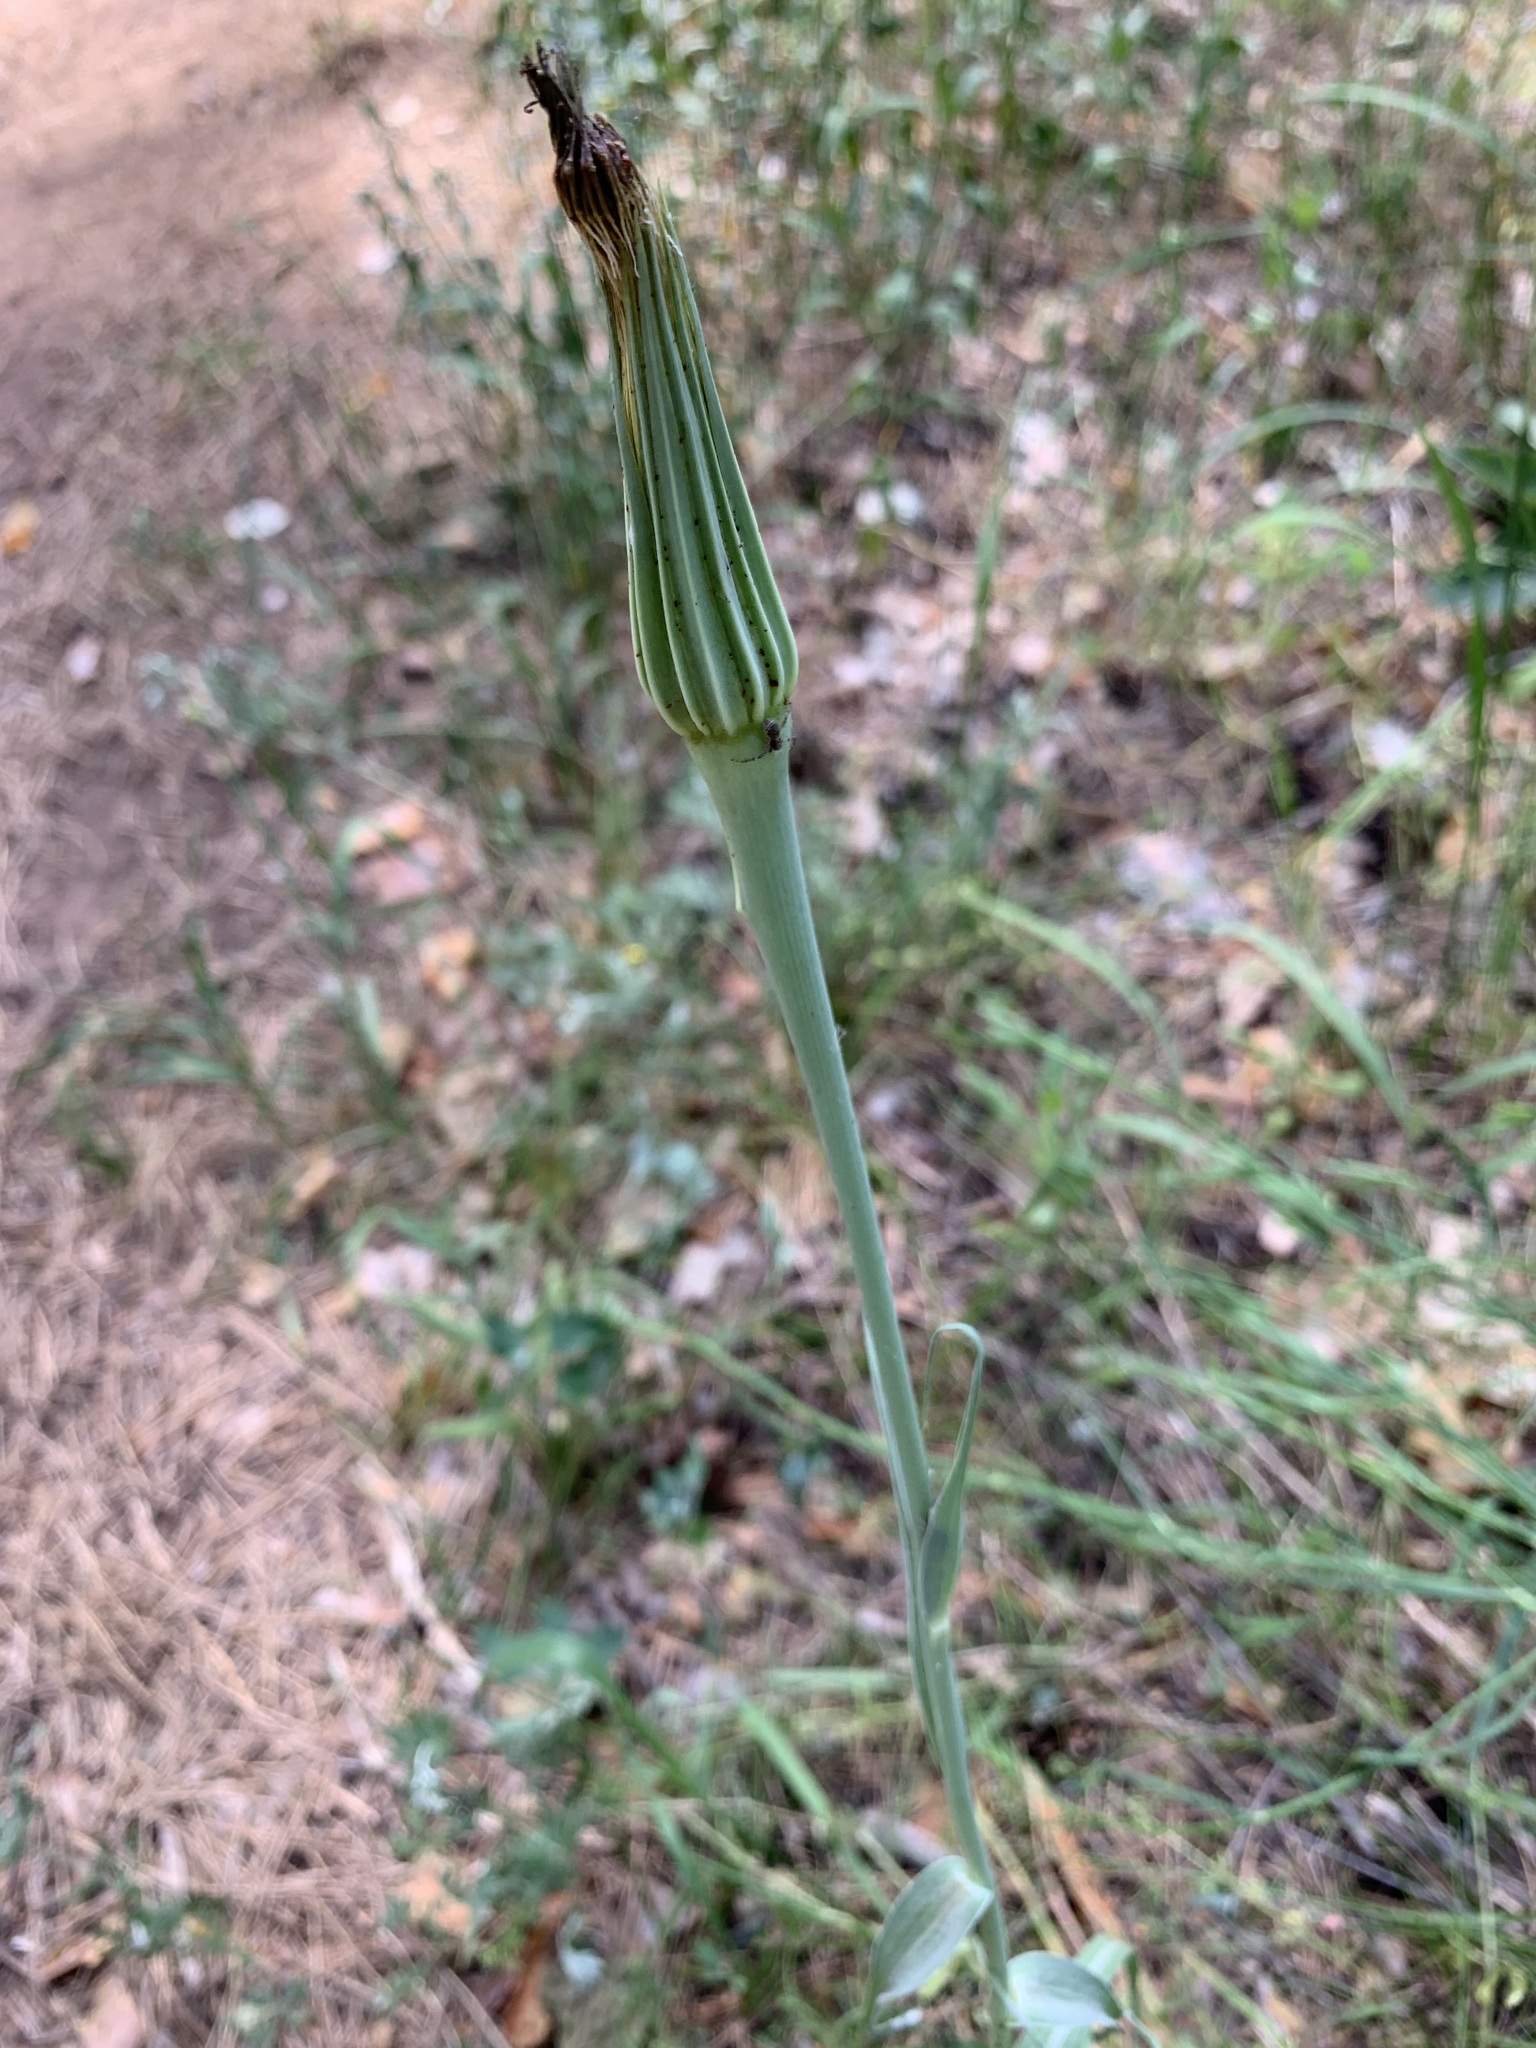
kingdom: Plantae
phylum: Tracheophyta
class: Magnoliopsida
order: Asterales
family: Asteraceae
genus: Tragopogon
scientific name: Tragopogon dubius
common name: Yellow salsify
